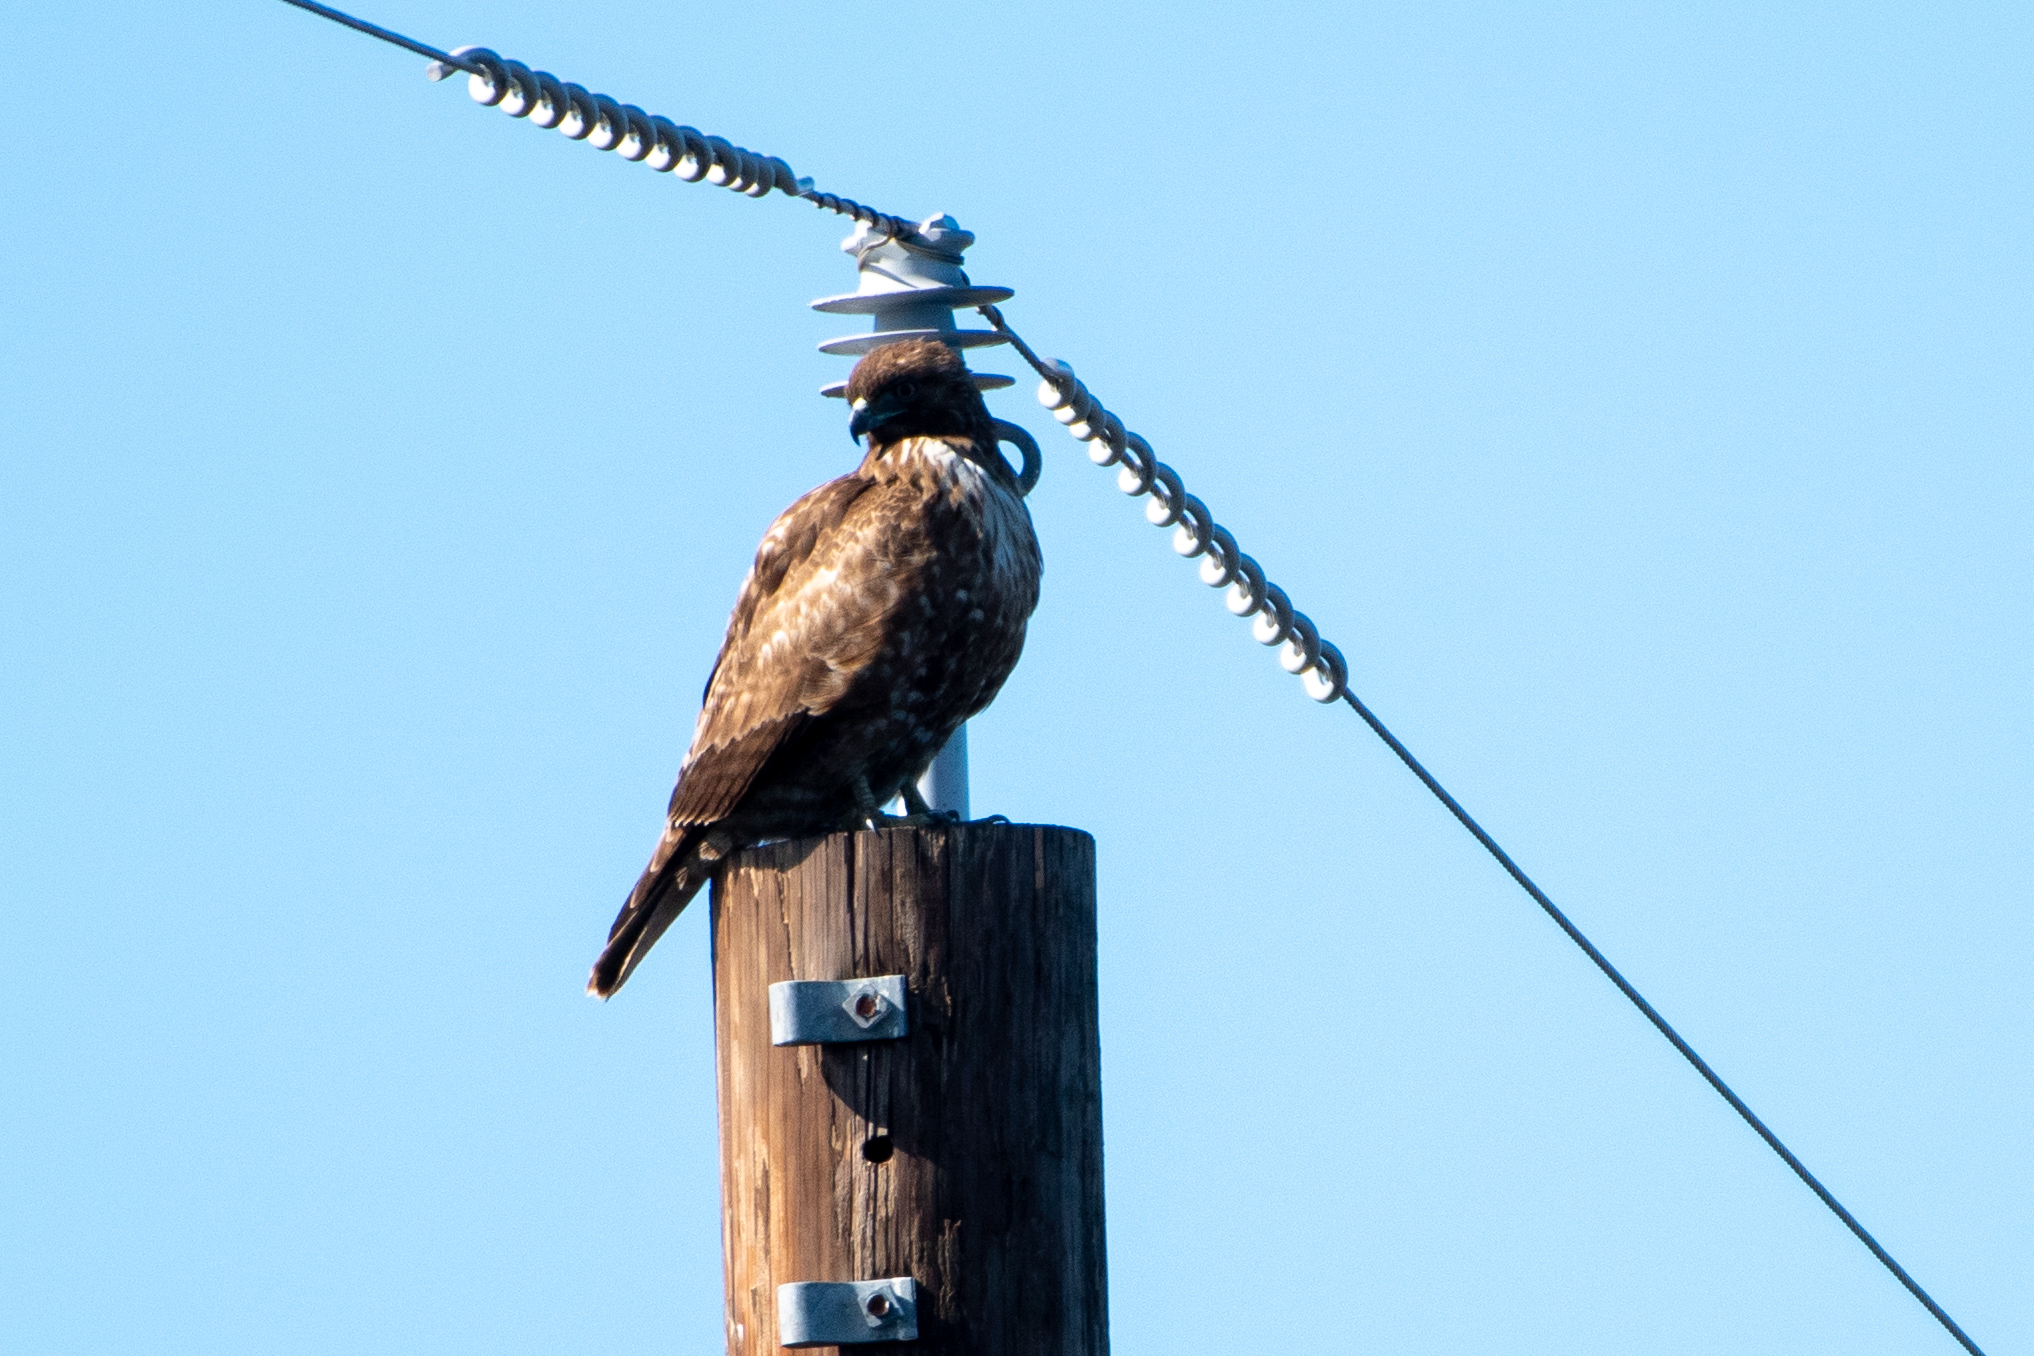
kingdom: Animalia
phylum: Chordata
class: Aves
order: Accipitriformes
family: Accipitridae
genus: Buteo
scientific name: Buteo jamaicensis
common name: Red-tailed hawk
